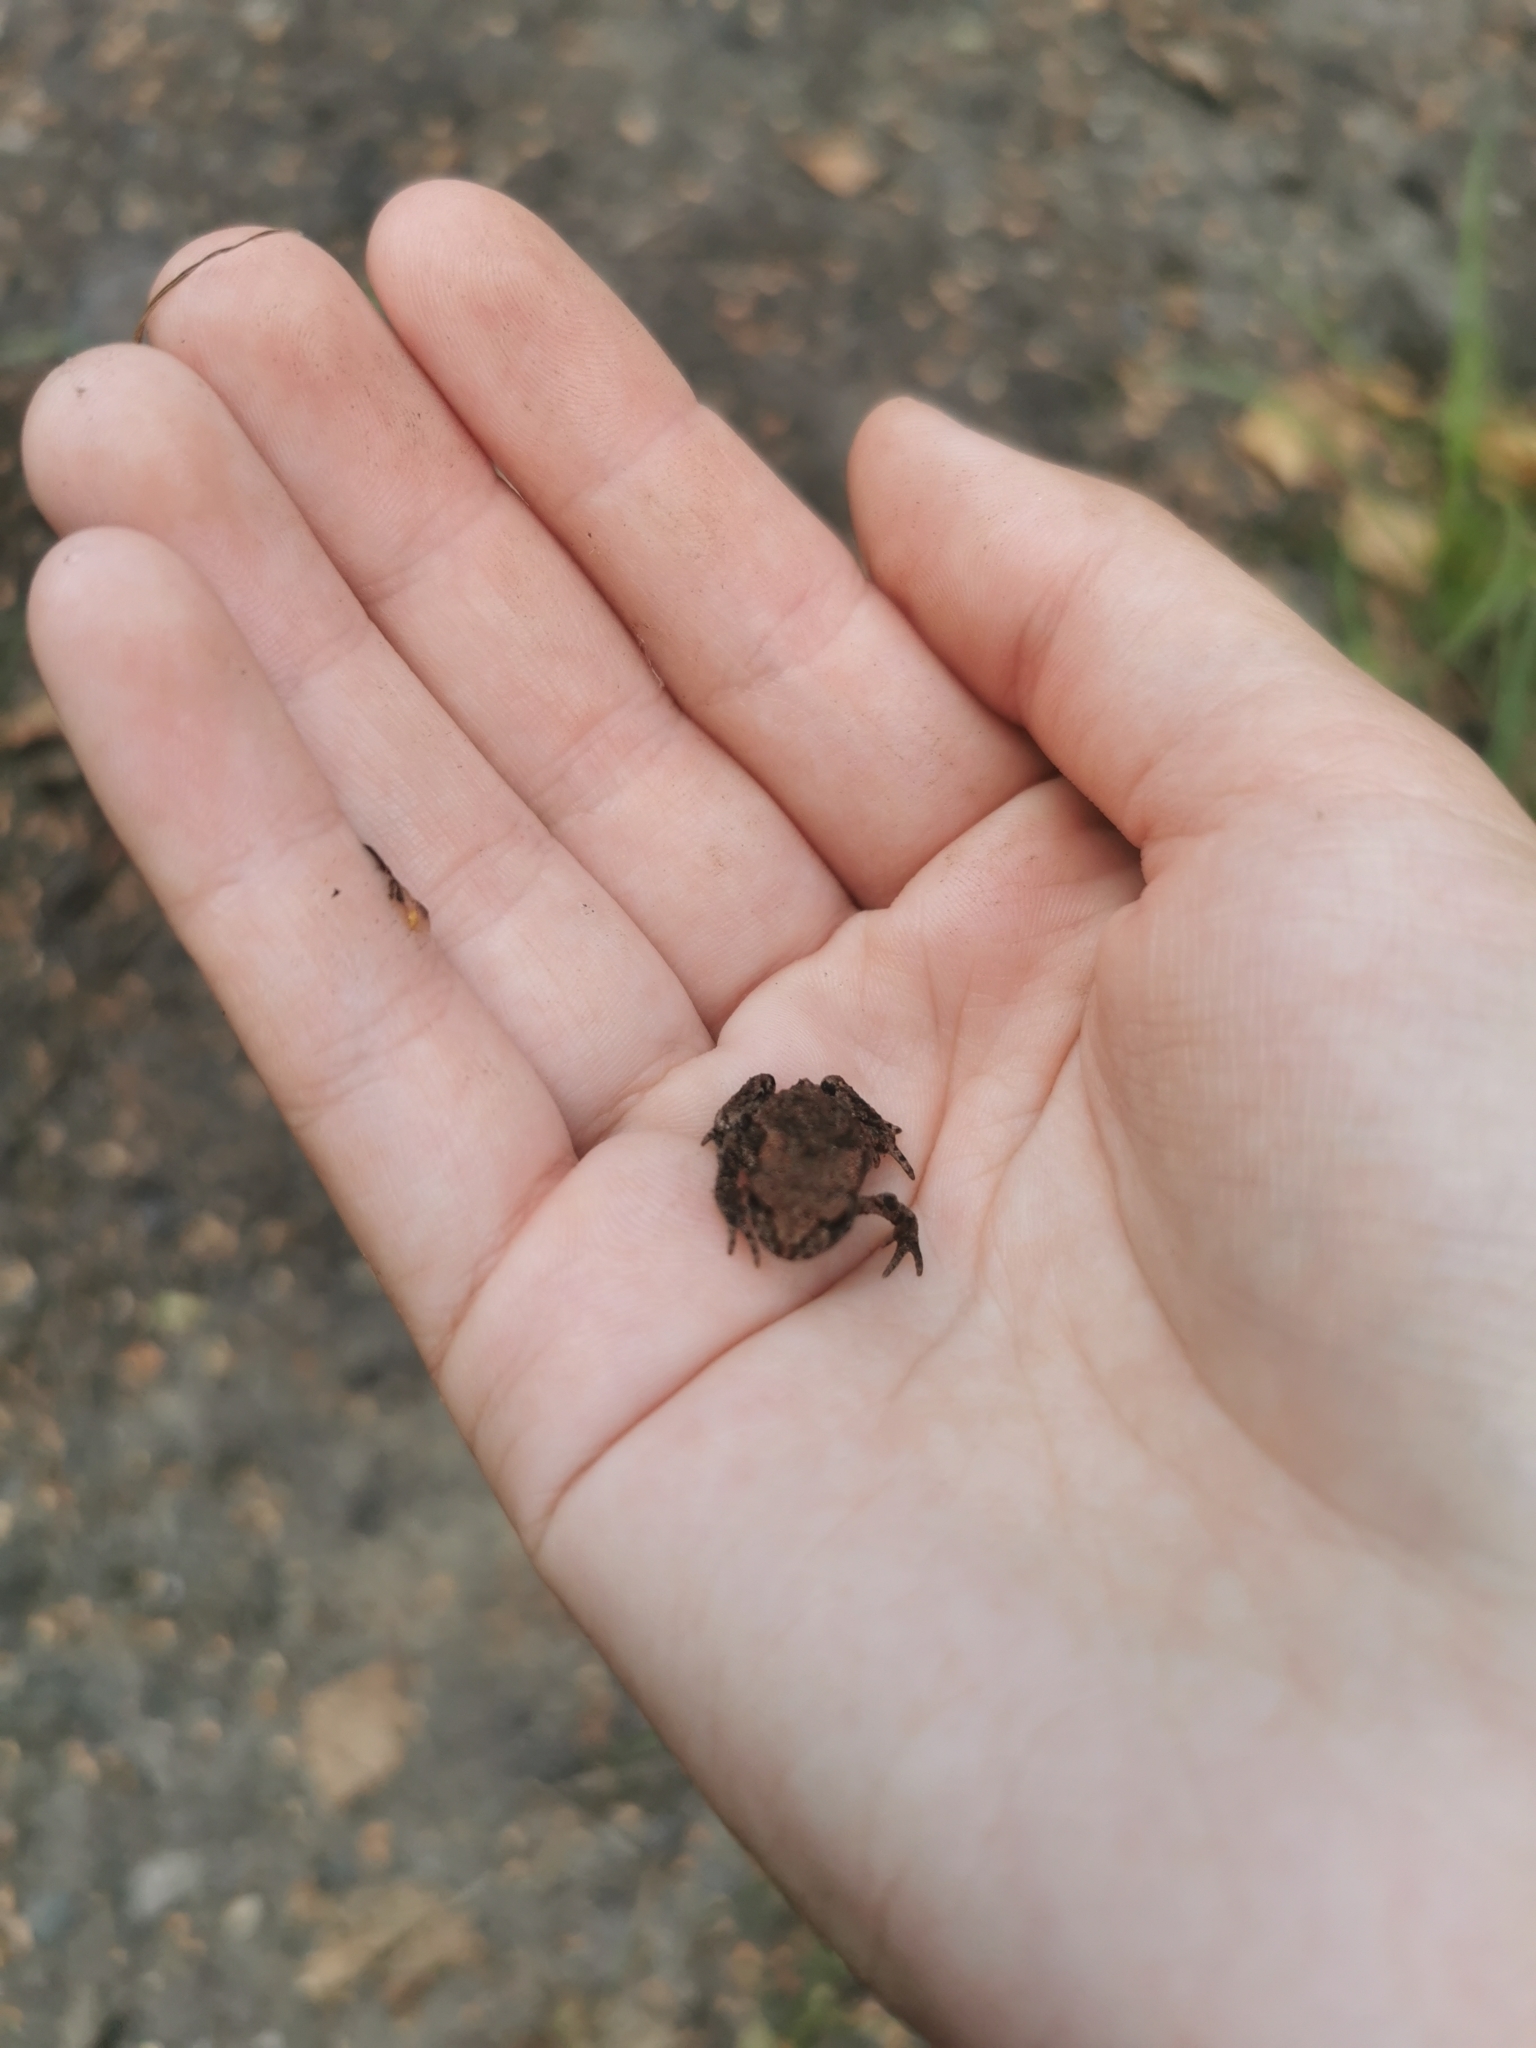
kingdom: Animalia
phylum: Chordata
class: Amphibia
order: Anura
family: Bufonidae
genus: Bufo
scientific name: Bufo bufo
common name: Common toad
